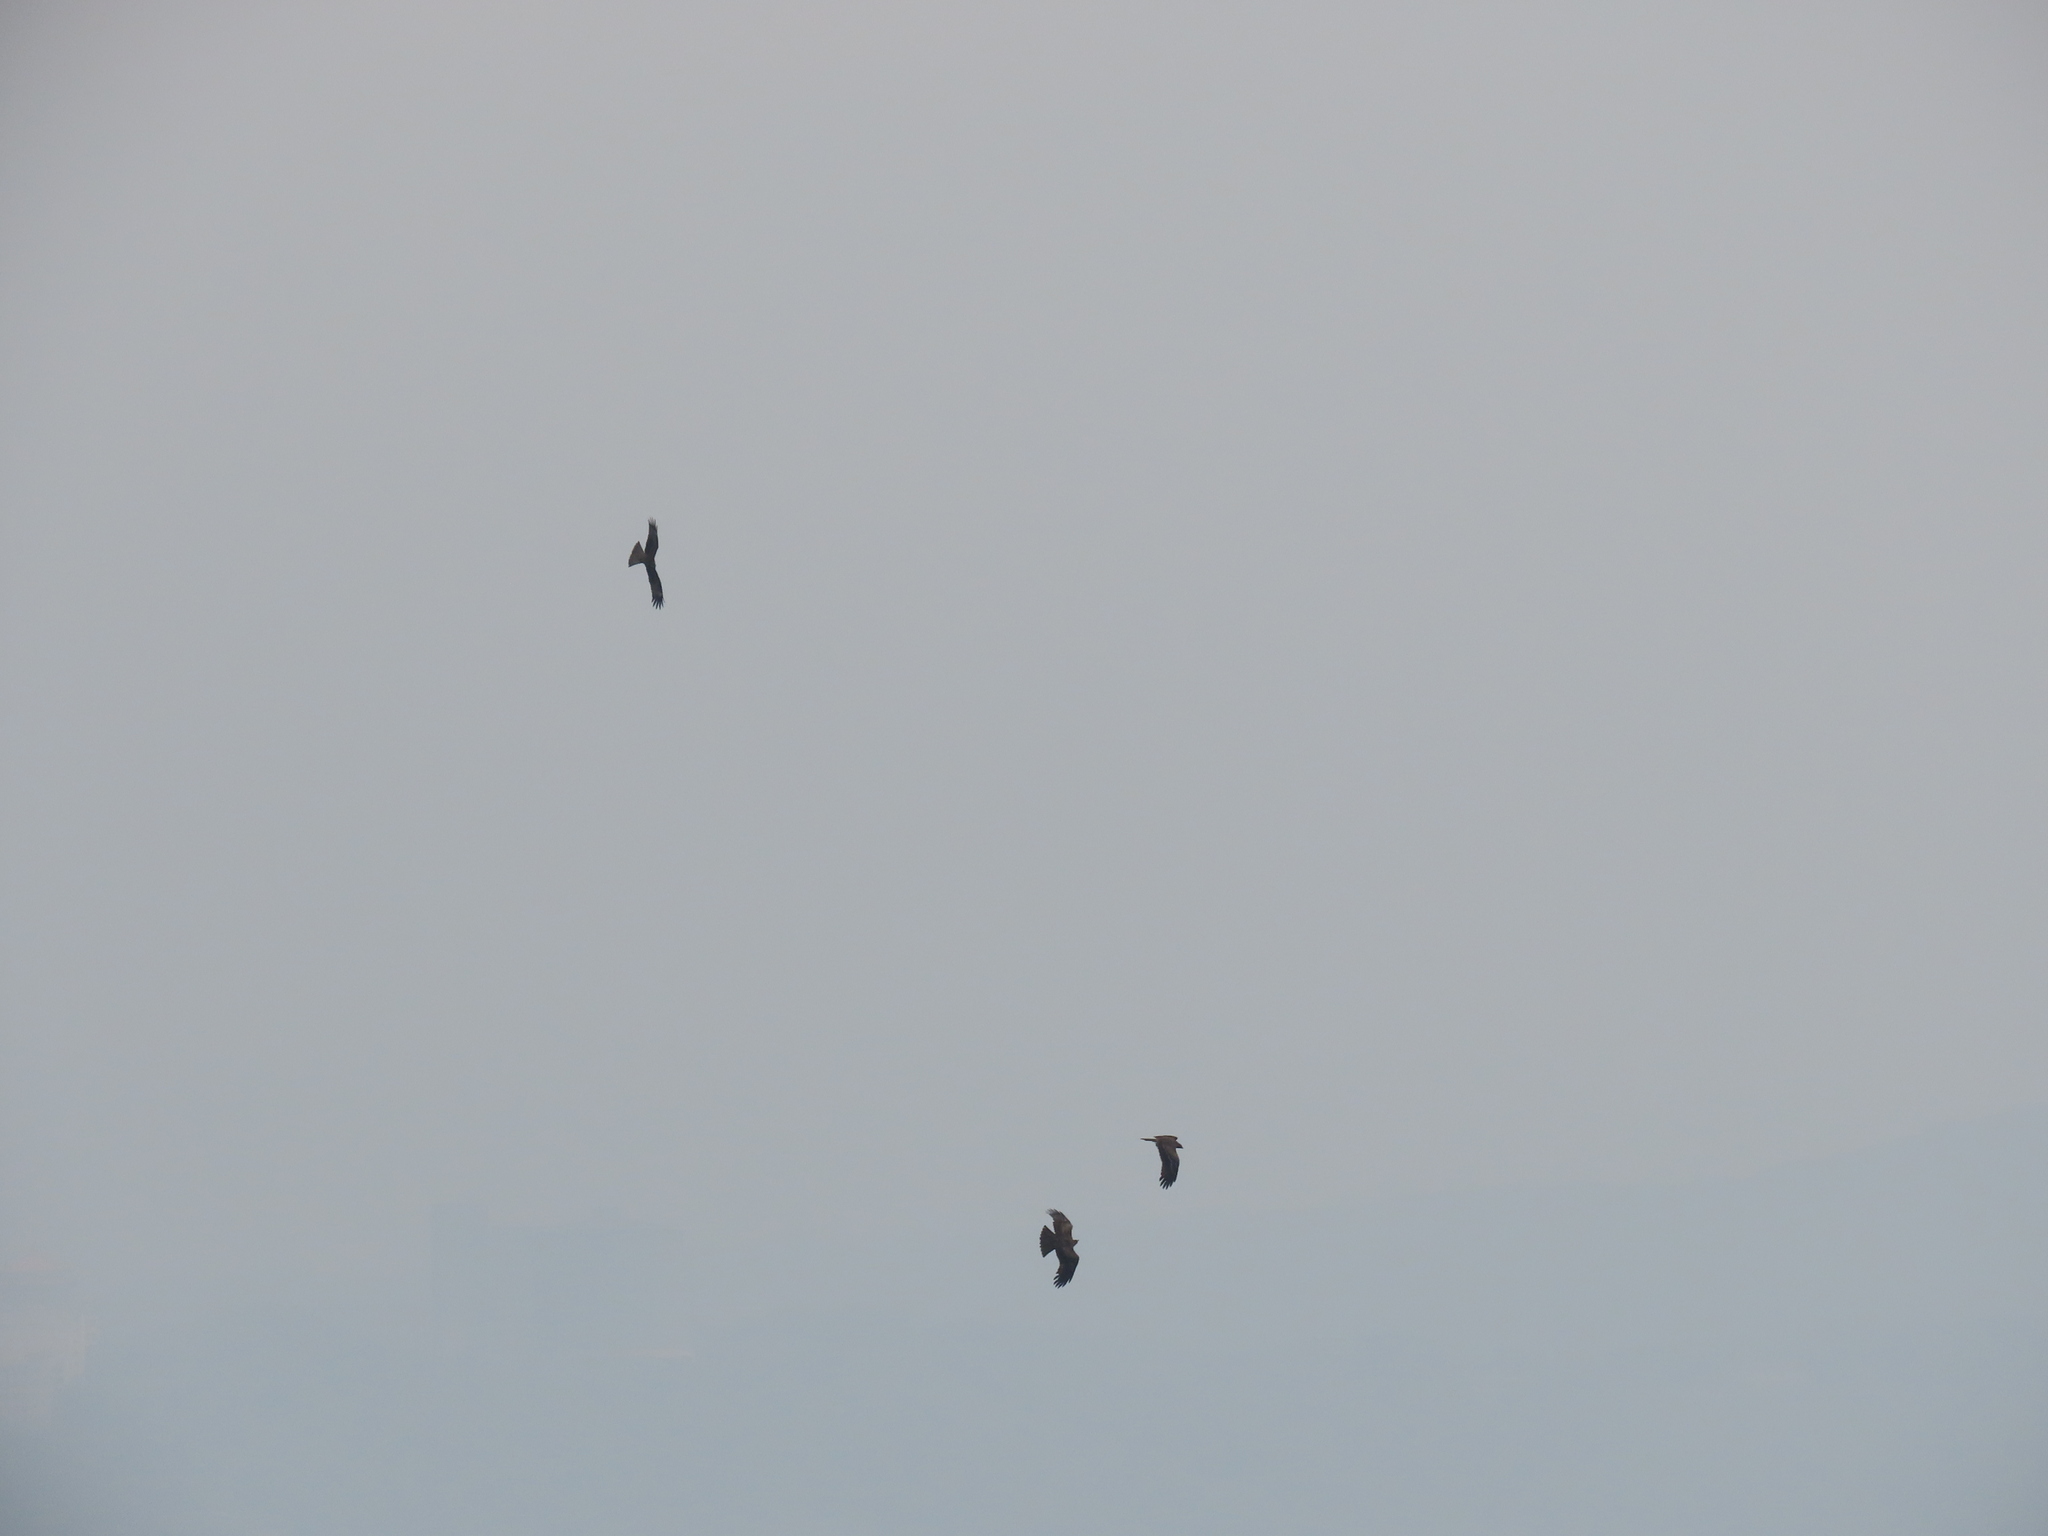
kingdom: Animalia
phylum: Chordata
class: Aves
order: Accipitriformes
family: Accipitridae
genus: Milvus
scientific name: Milvus migrans
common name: Black kite
